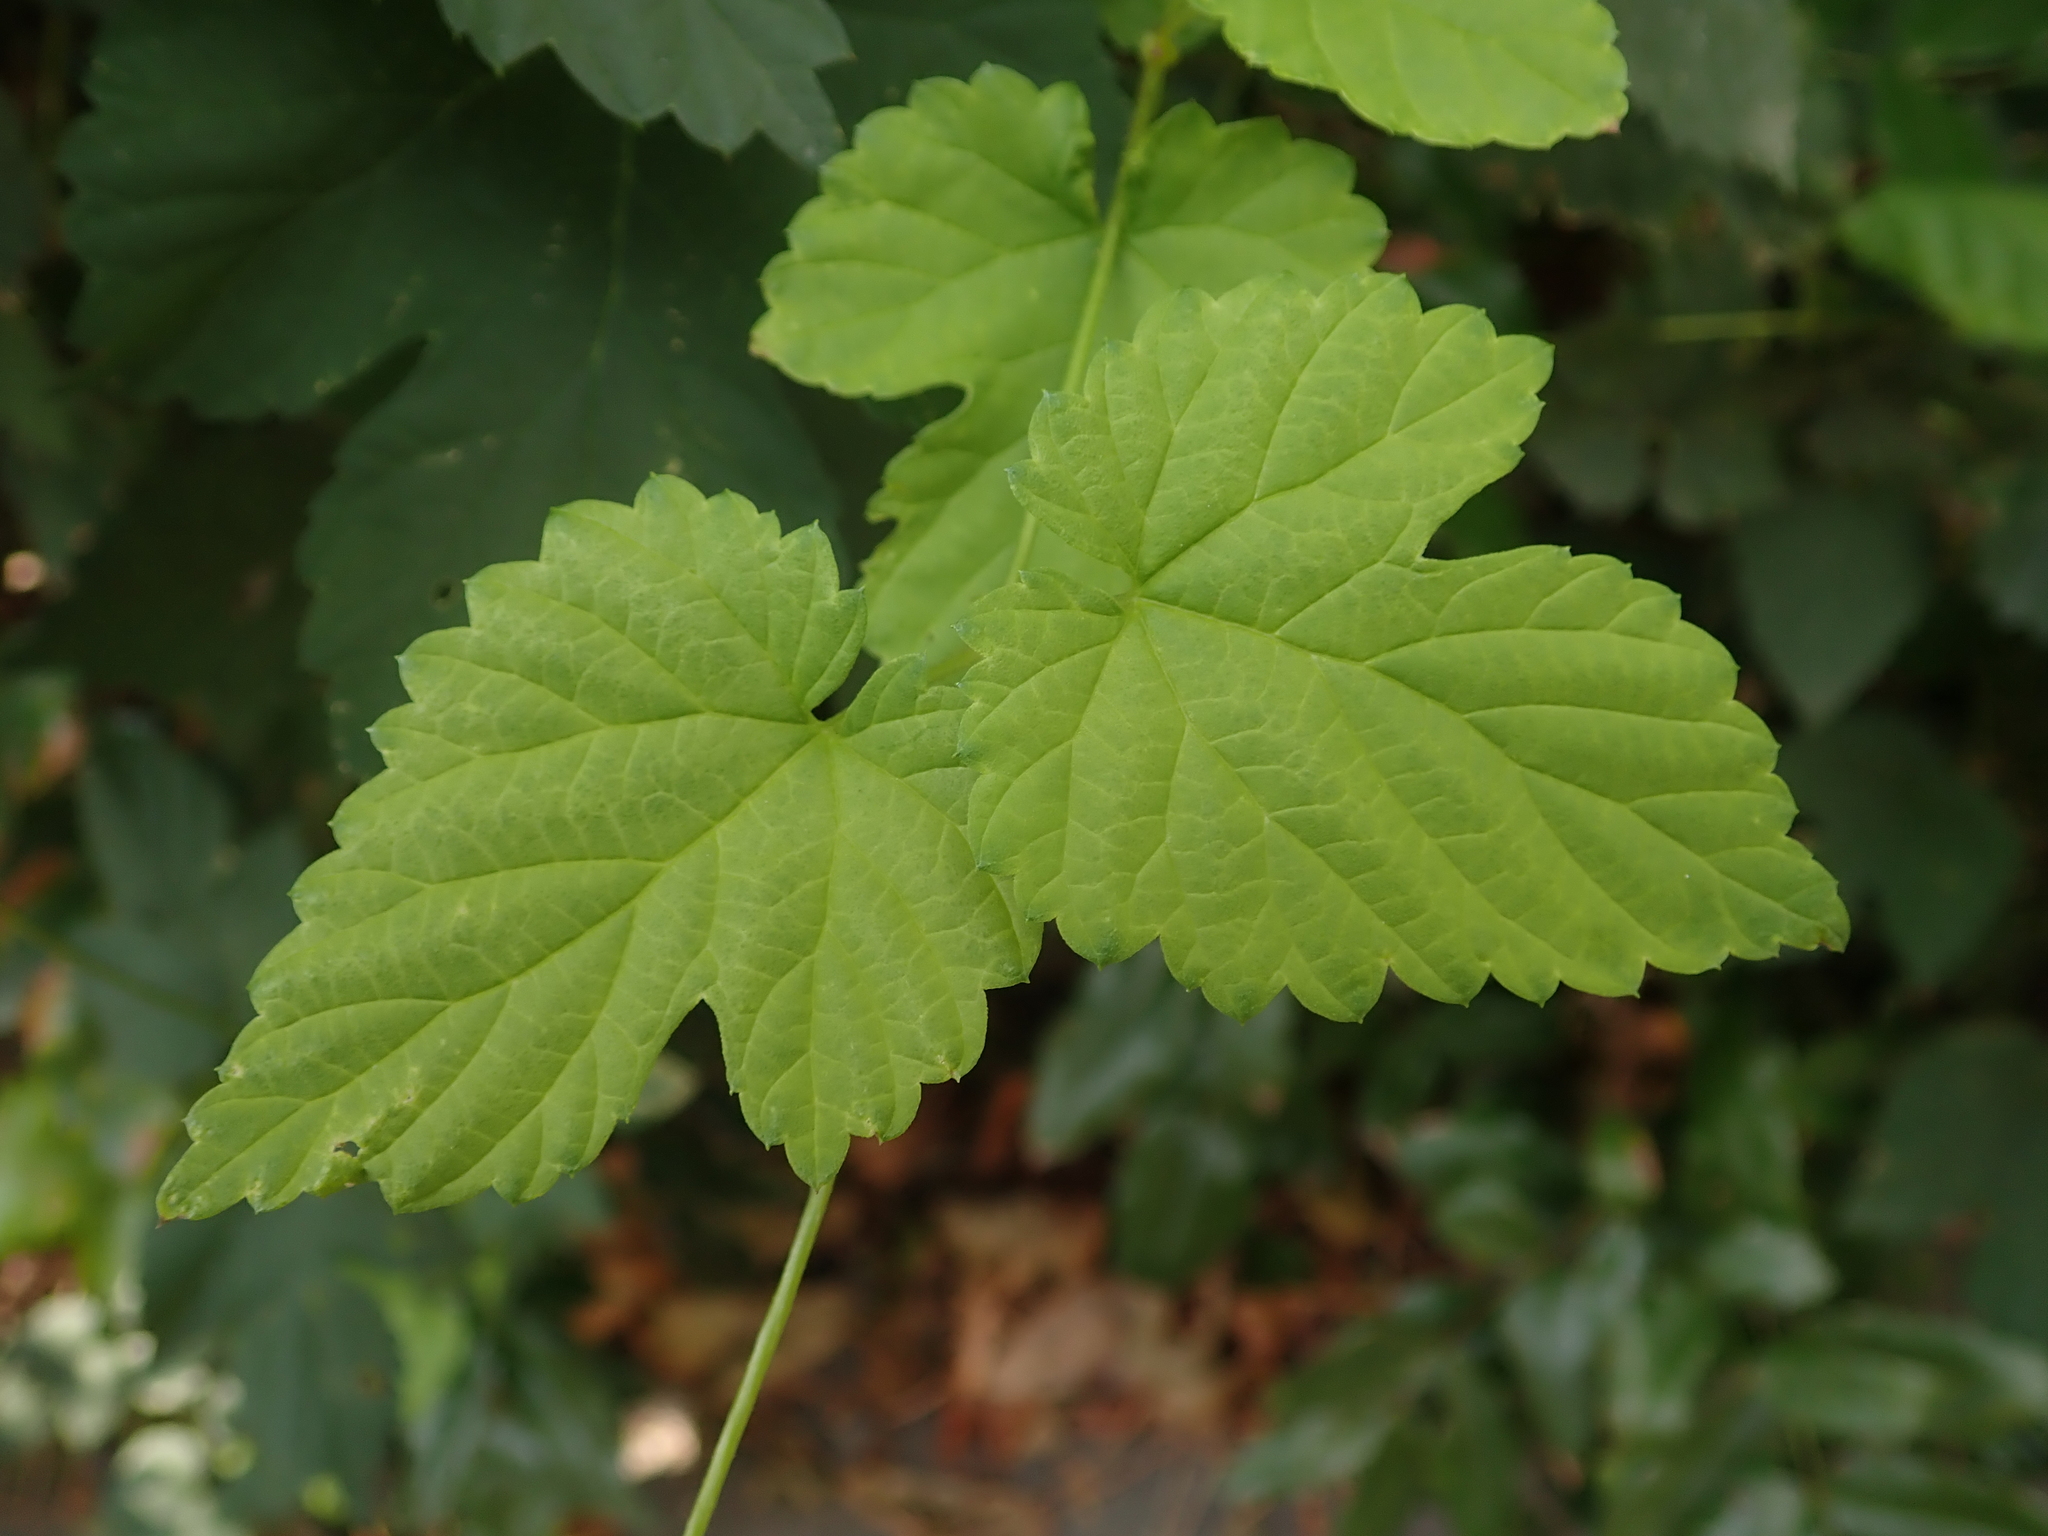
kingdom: Plantae
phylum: Tracheophyta
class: Magnoliopsida
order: Rosales
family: Cannabaceae
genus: Humulus
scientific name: Humulus lupulus
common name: Hop
